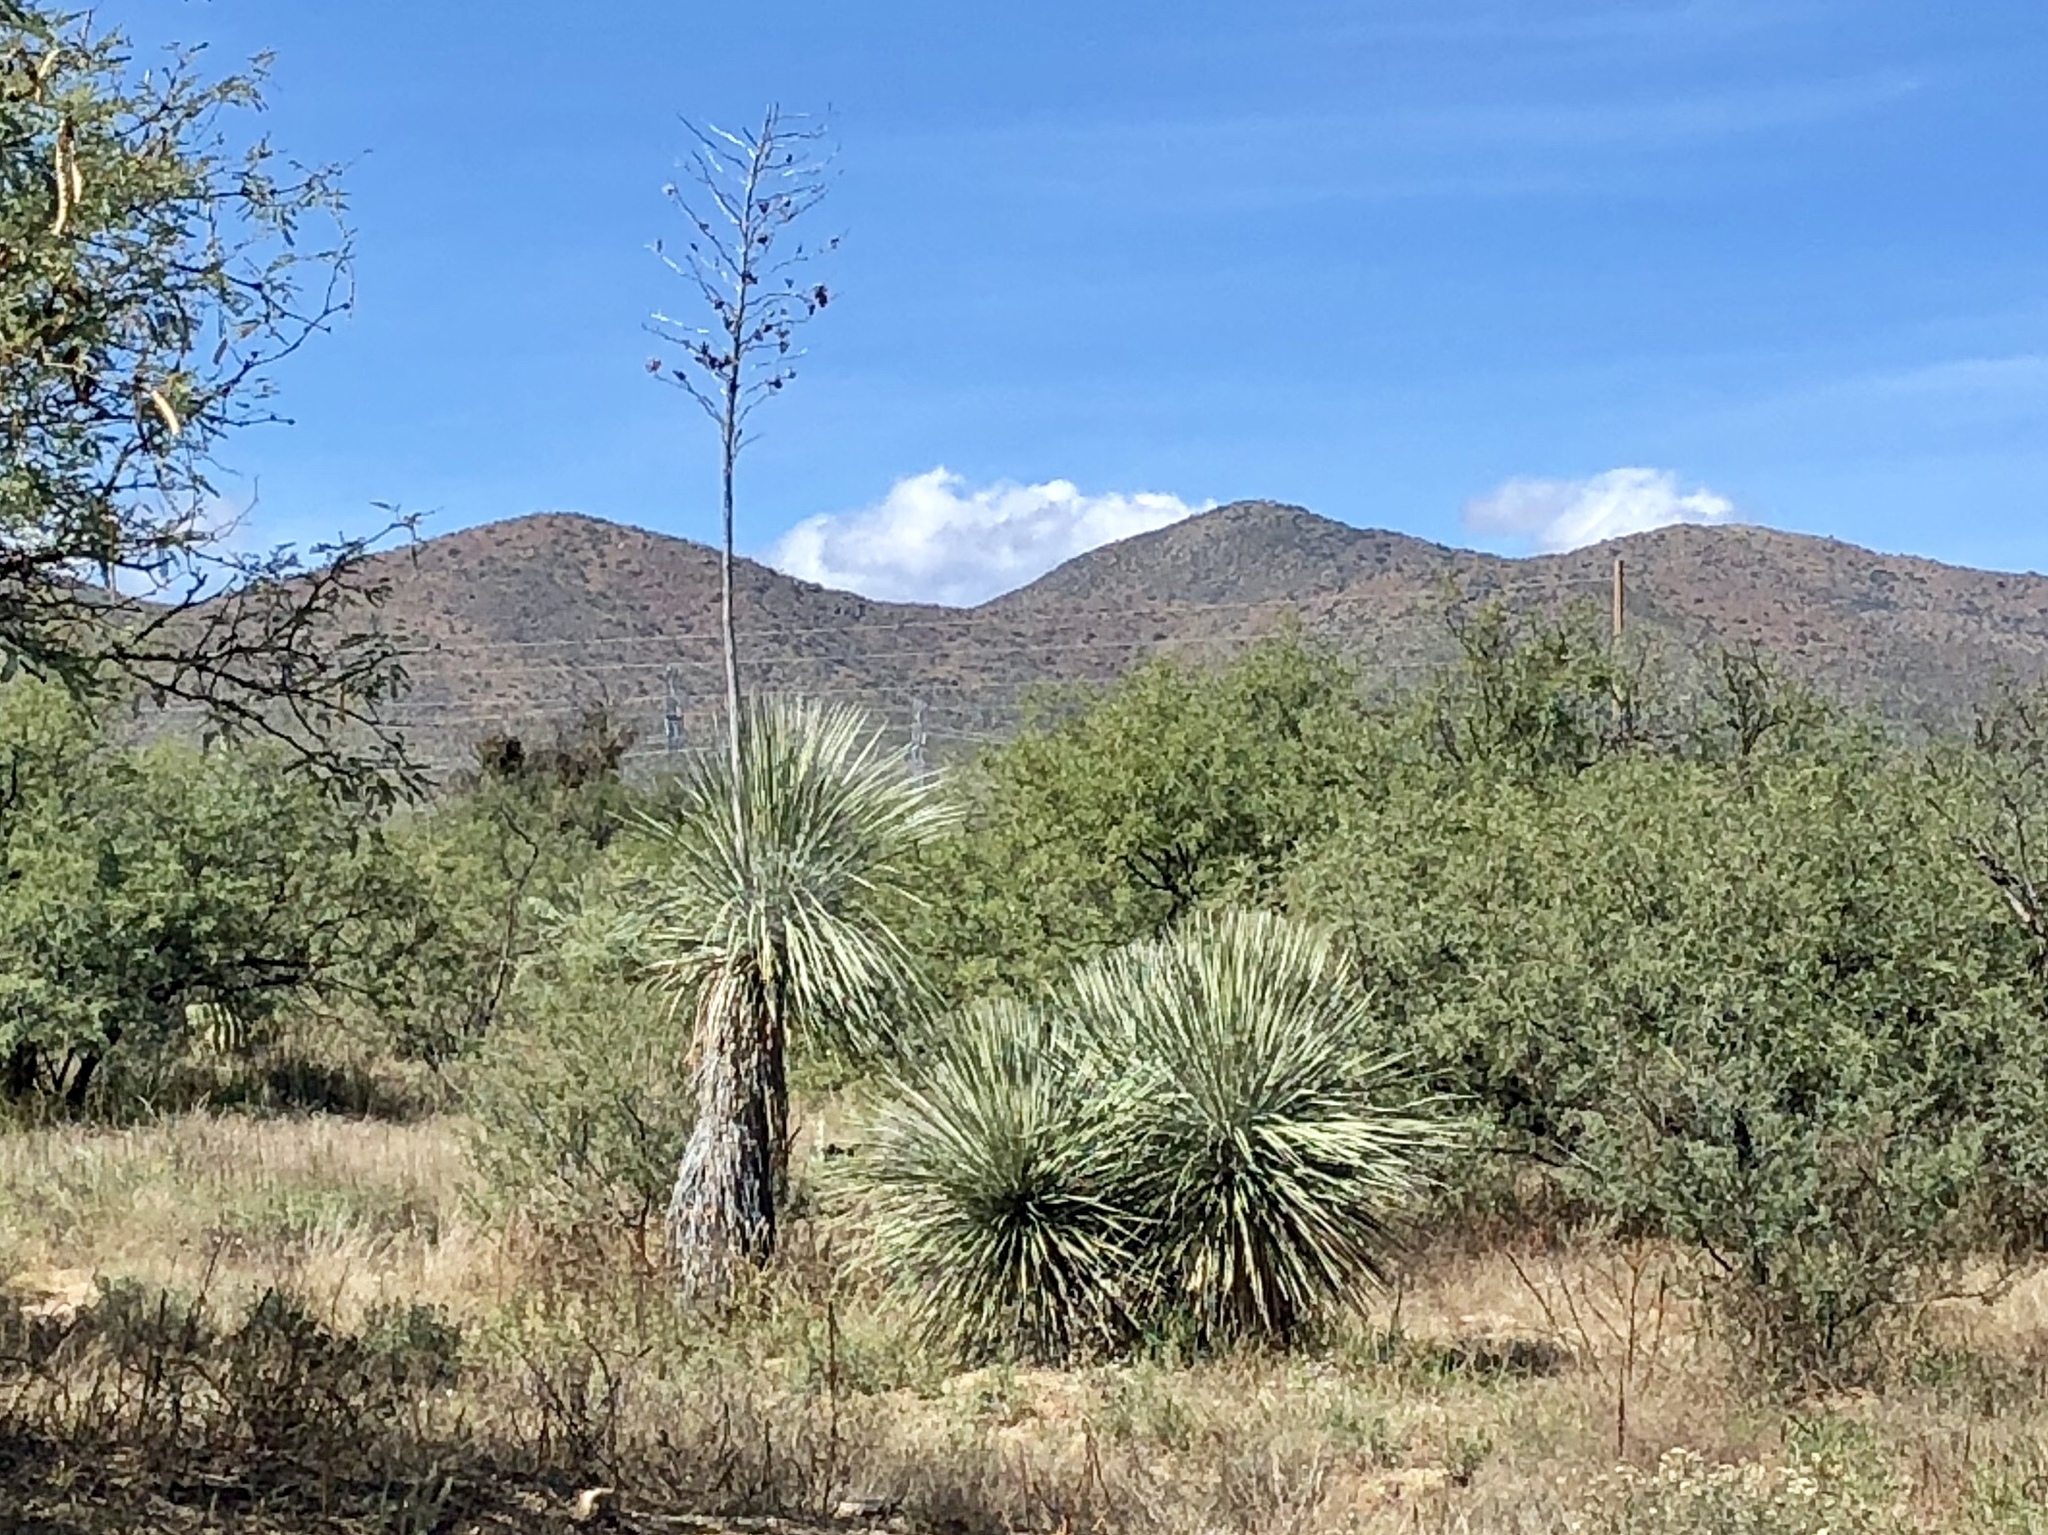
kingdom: Plantae
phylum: Tracheophyta
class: Liliopsida
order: Asparagales
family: Asparagaceae
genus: Yucca
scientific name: Yucca elata
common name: Palmella
